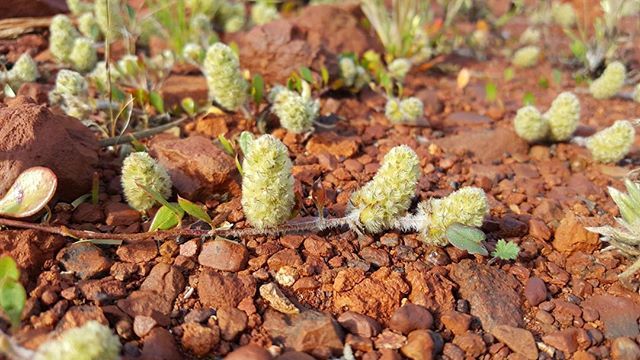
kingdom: Plantae
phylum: Tracheophyta
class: Magnoliopsida
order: Caryophyllales
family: Amaranthaceae
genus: Ptilotus
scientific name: Ptilotus aervoides
